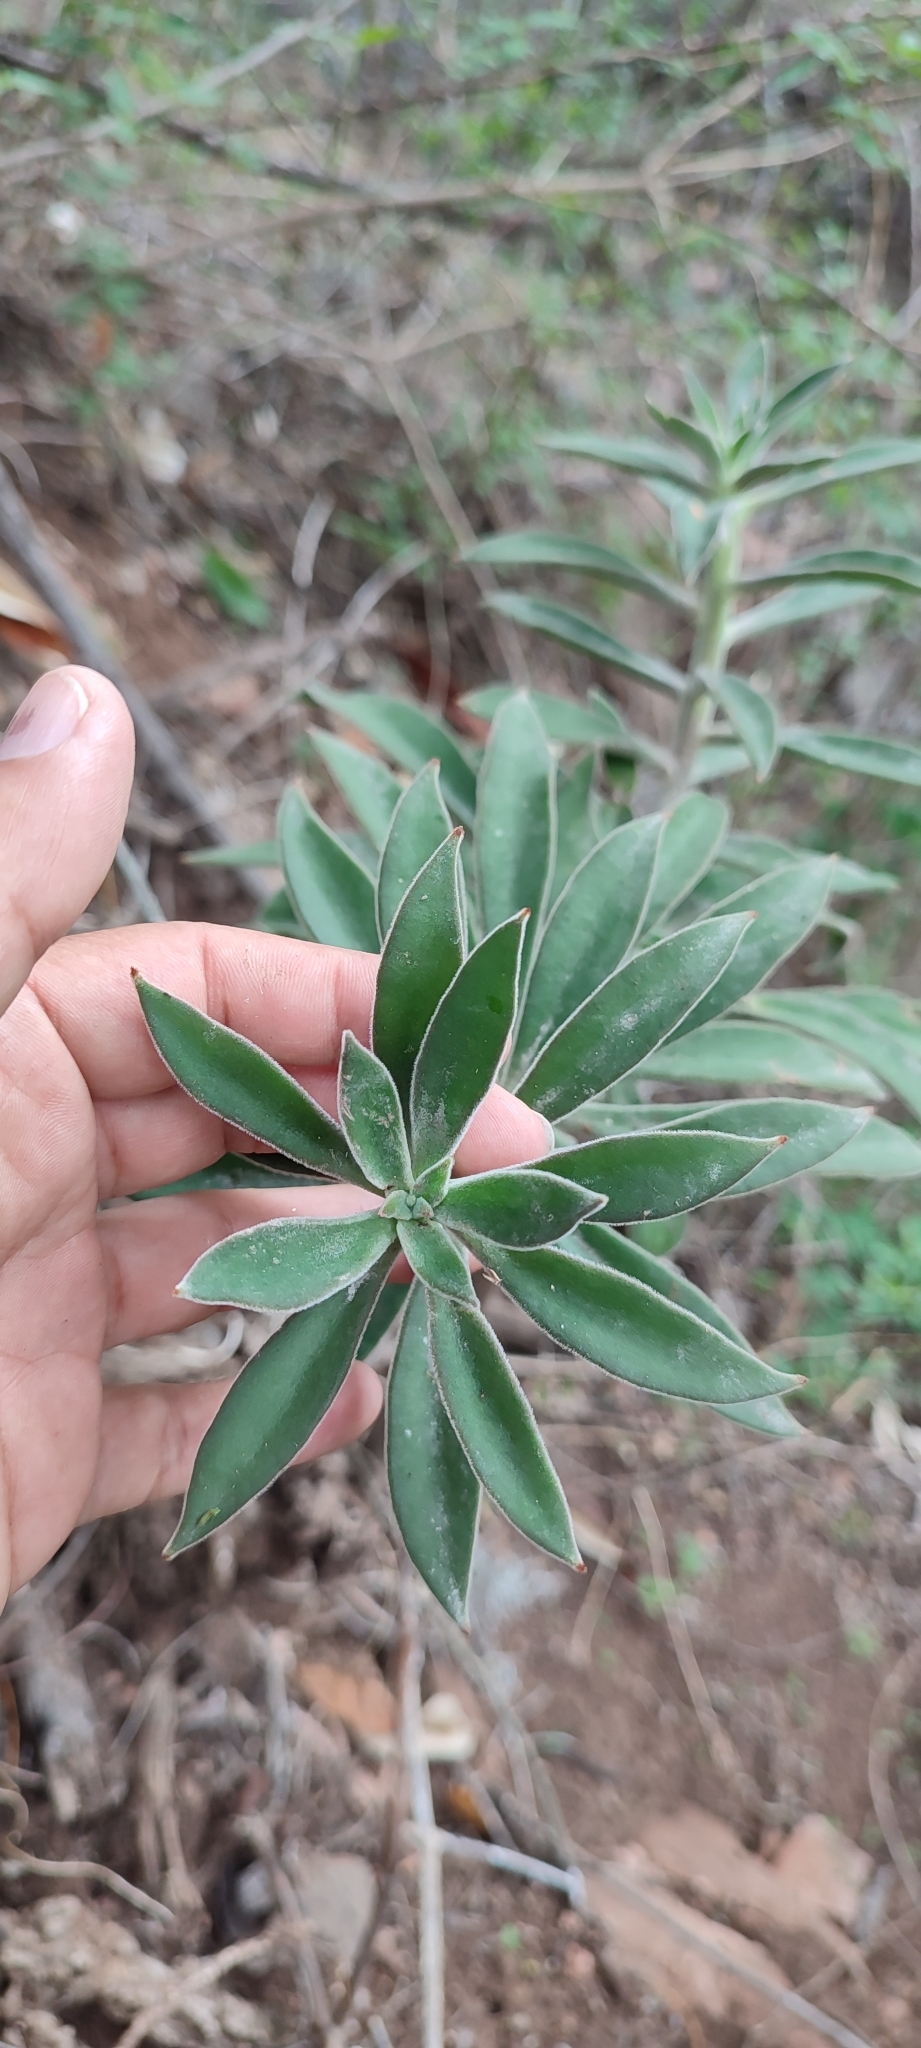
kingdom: Plantae
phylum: Tracheophyta
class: Magnoliopsida
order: Saxifragales
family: Crassulaceae
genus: Echeveria
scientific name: Echeveria coccinea
